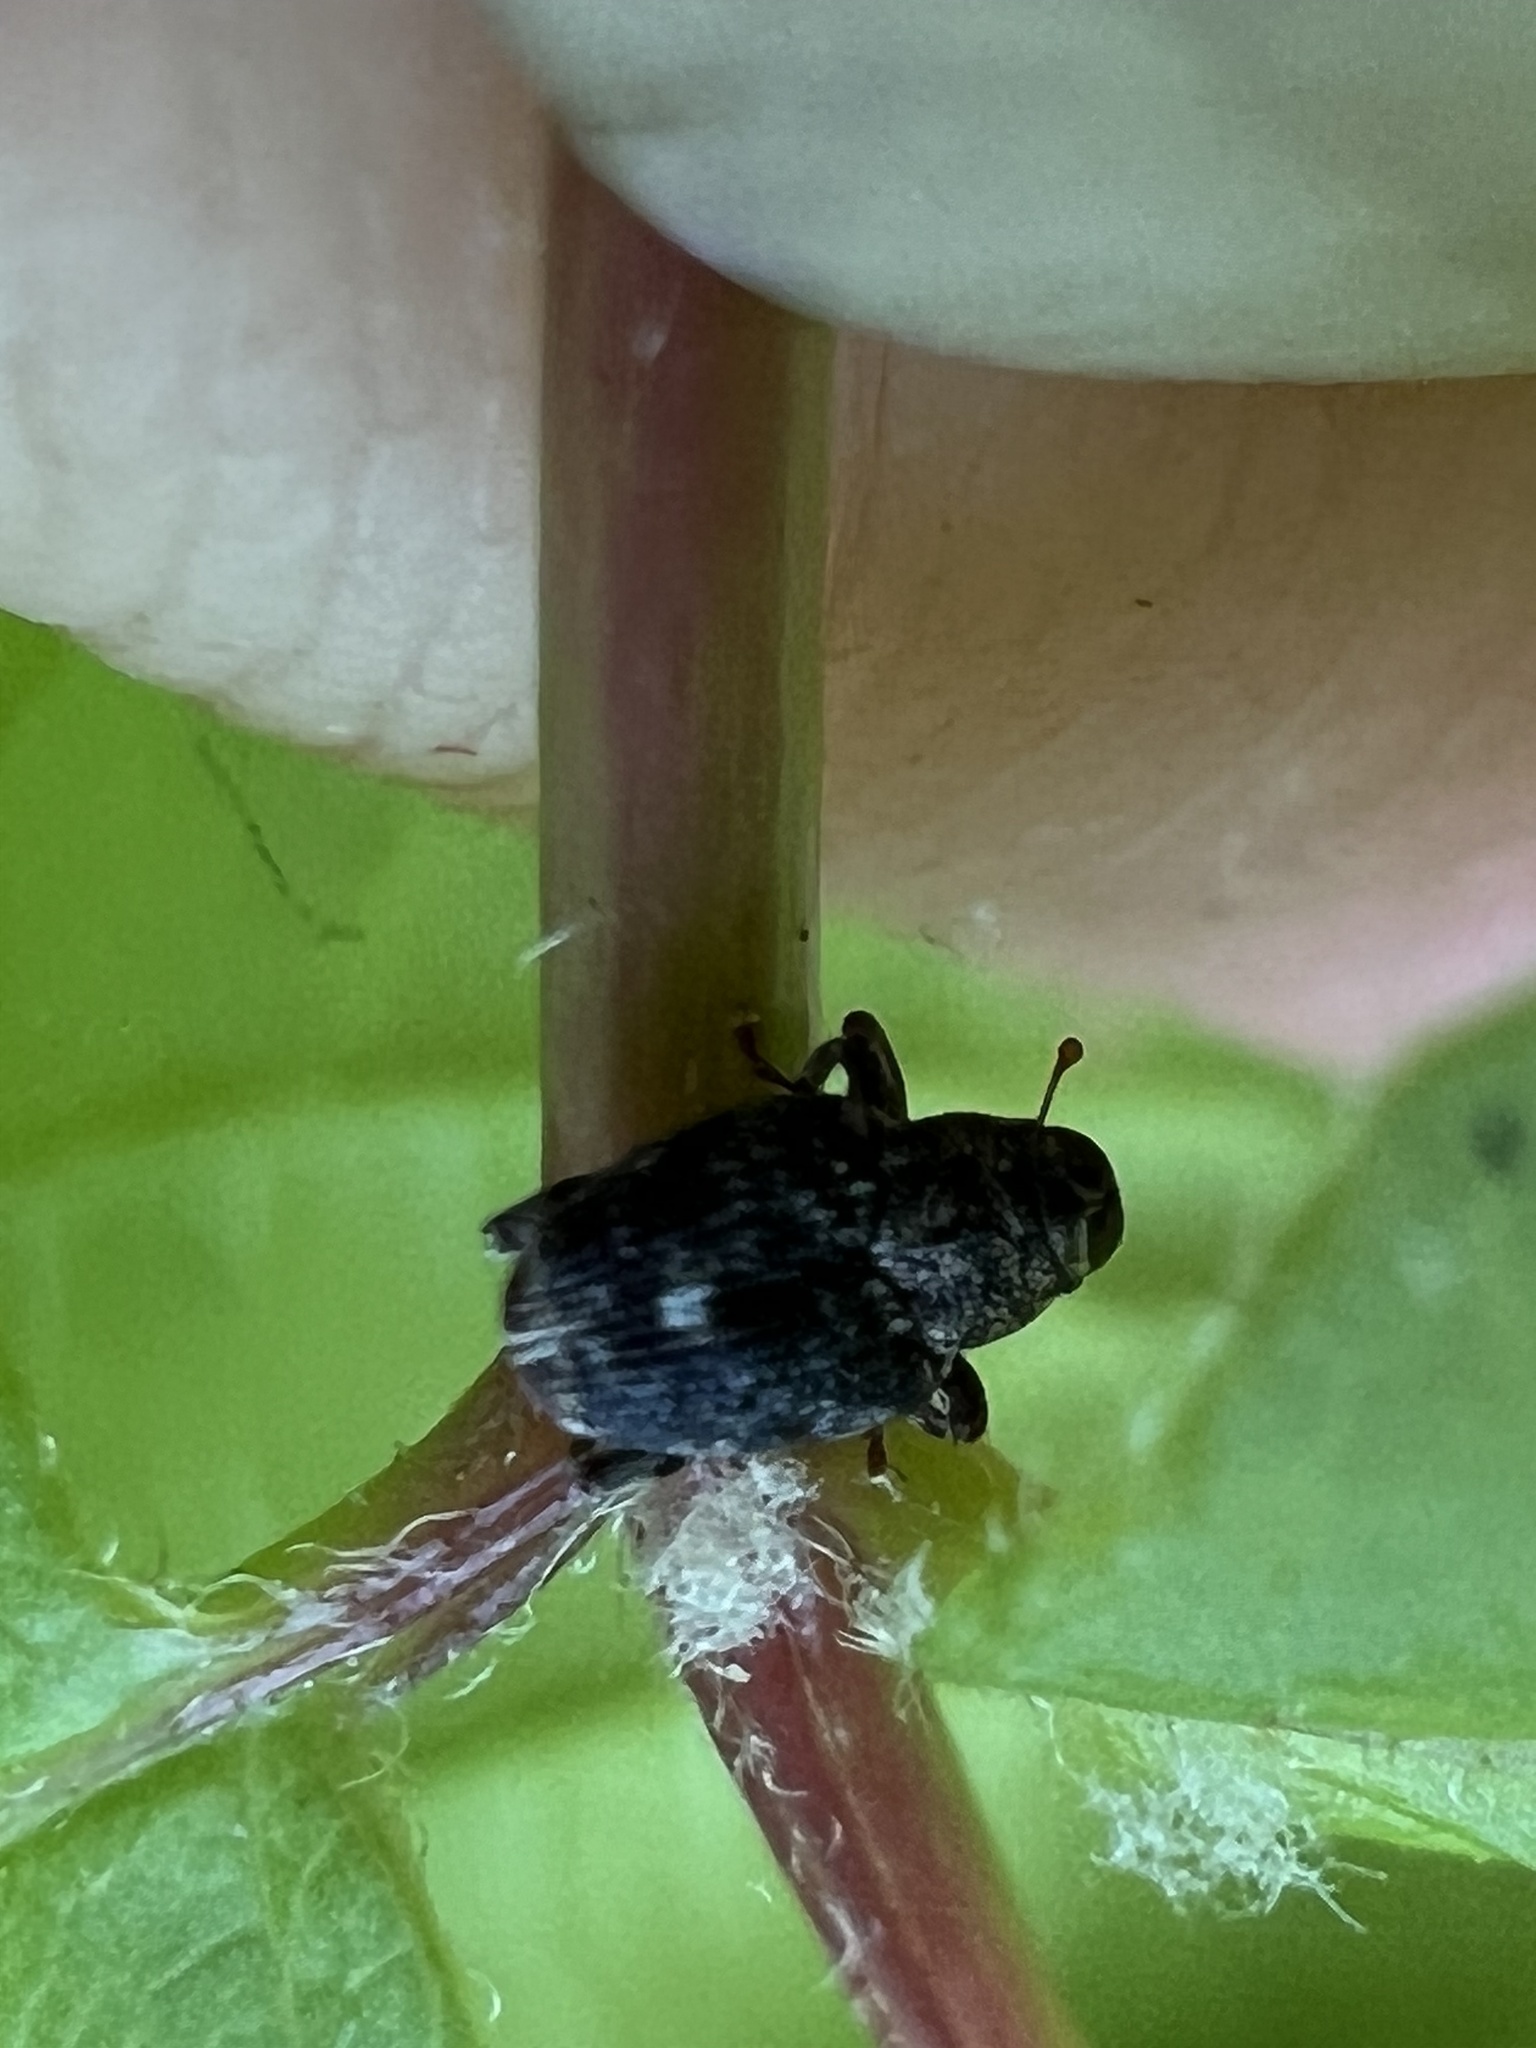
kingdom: Animalia
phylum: Arthropoda
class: Insecta
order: Coleoptera
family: Curculionidae
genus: Lechriops
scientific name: Lechriops oculatus
